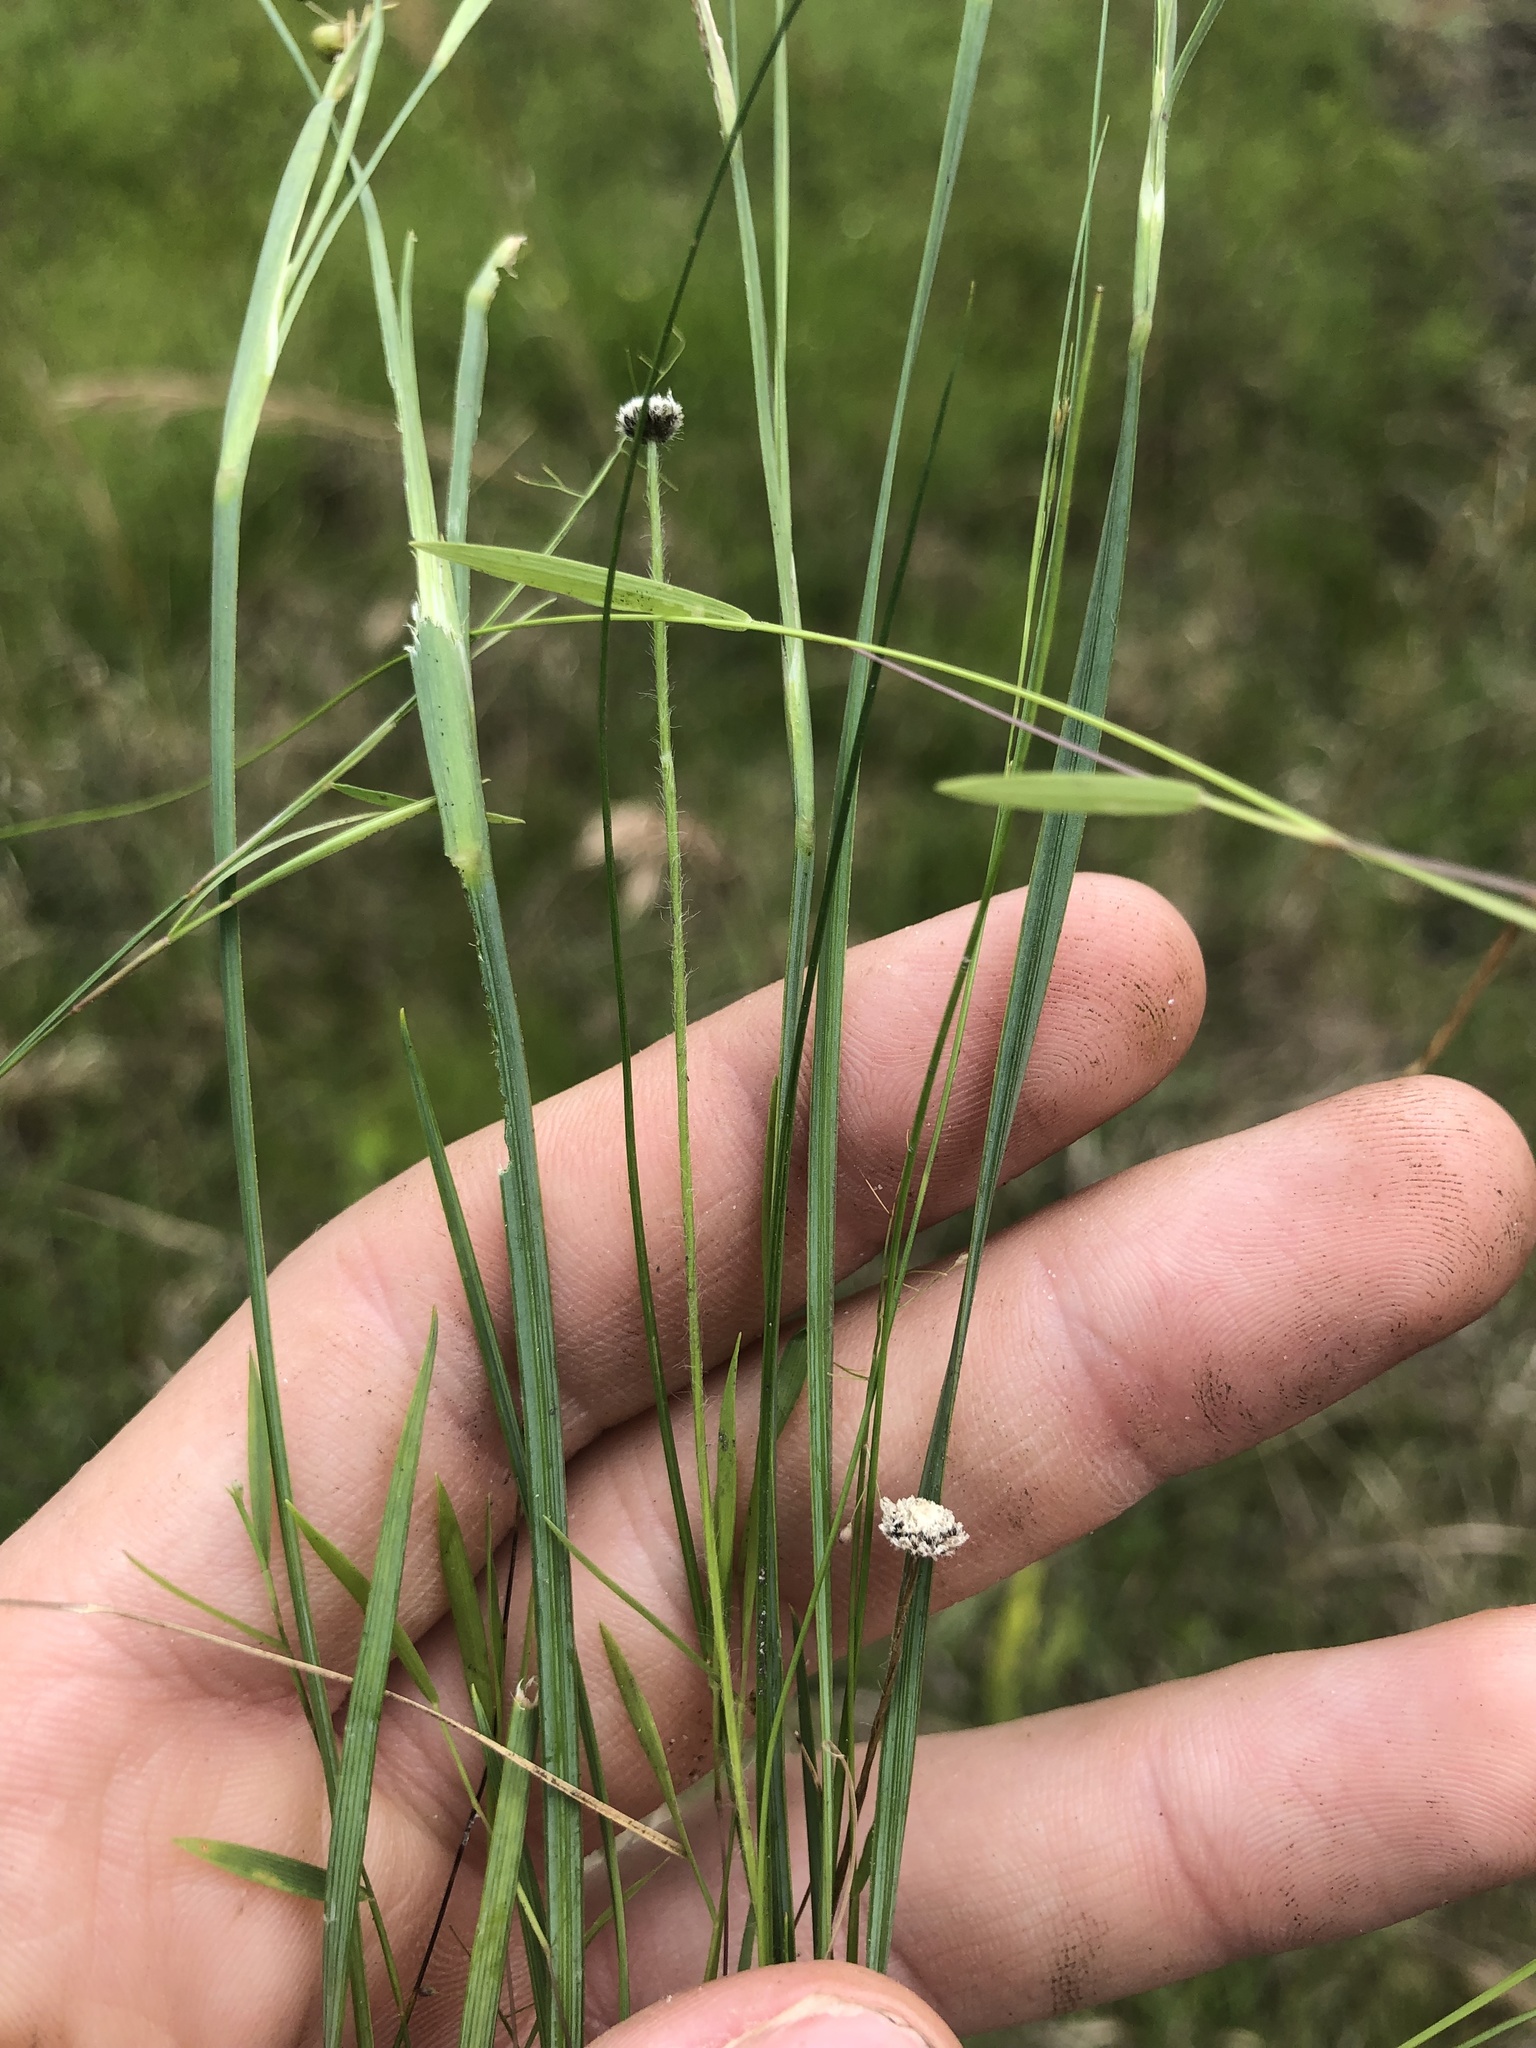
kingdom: Plantae
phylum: Tracheophyta
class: Liliopsida
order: Asparagales
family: Iridaceae
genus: Sisyrinchium
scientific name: Sisyrinchium atlanticum
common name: Eastern blue-eyed-grass
